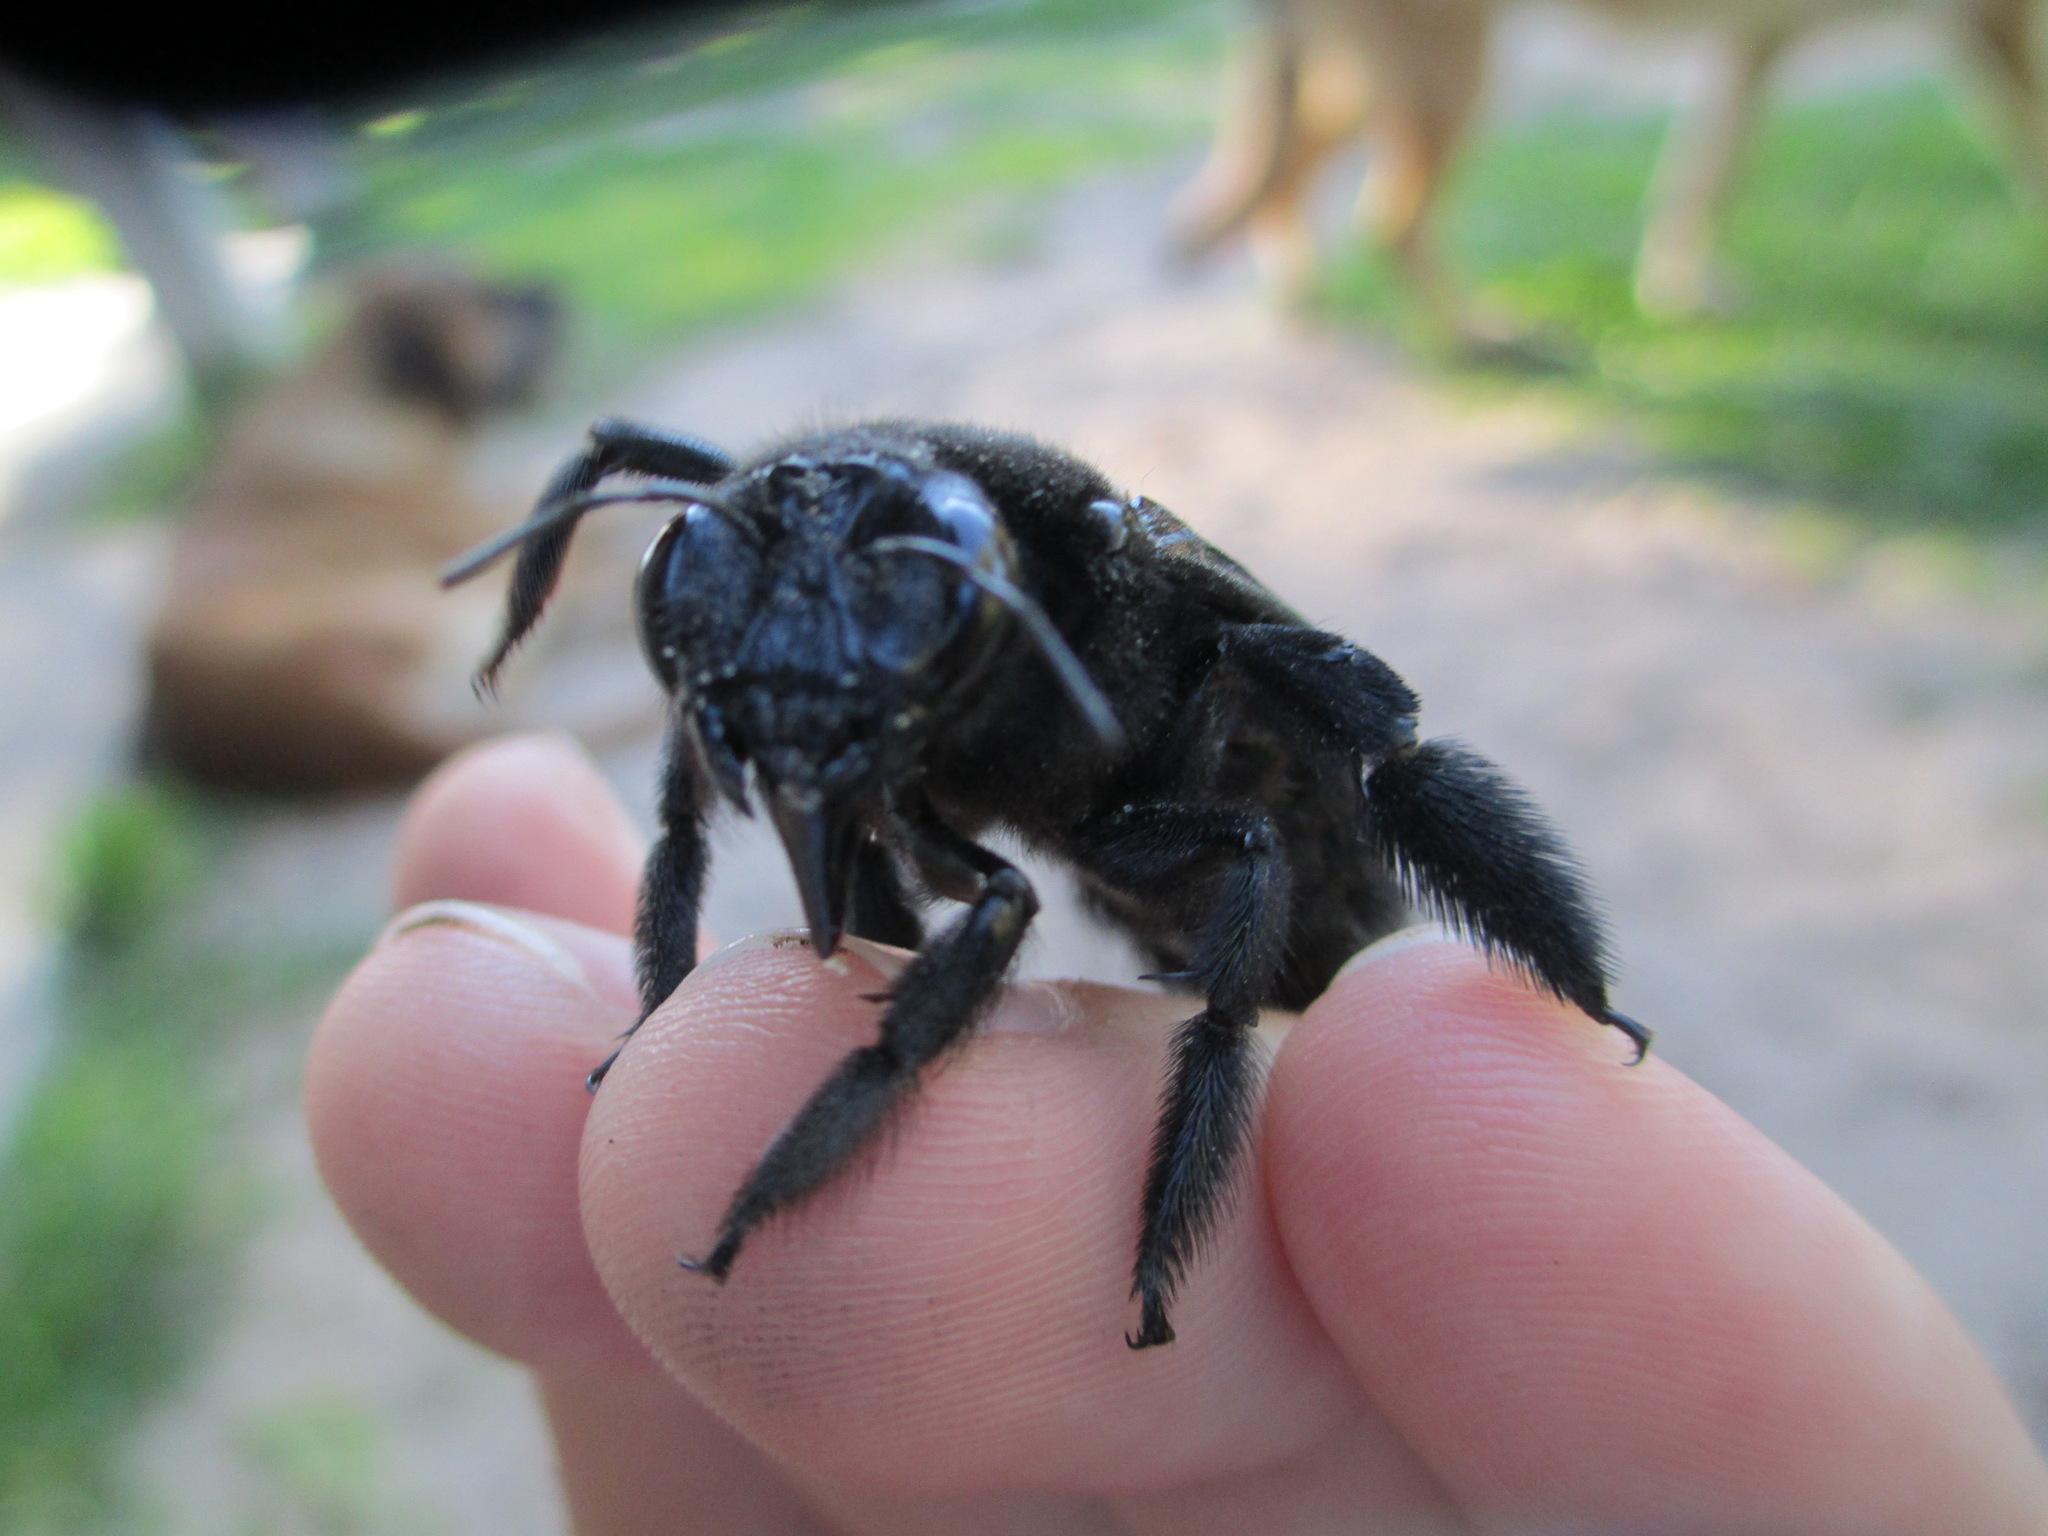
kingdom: Animalia
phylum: Arthropoda
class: Insecta
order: Hymenoptera
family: Apidae
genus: Xylocopa
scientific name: Xylocopa frontalis
